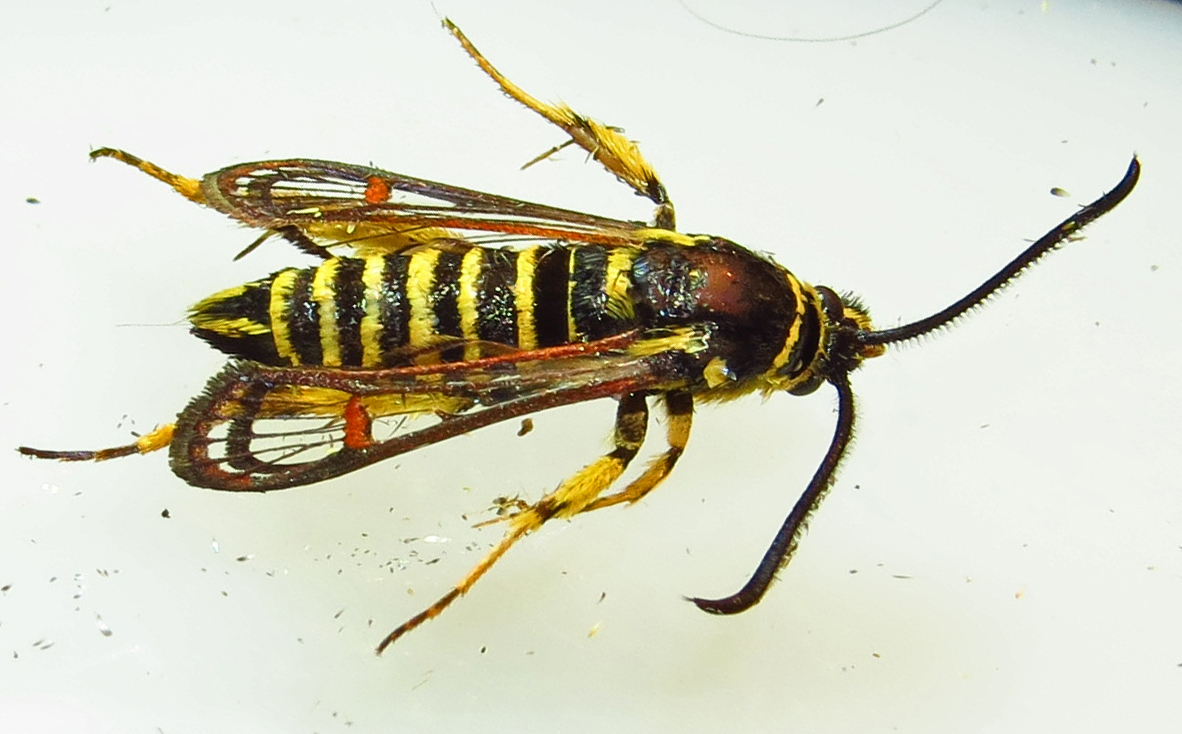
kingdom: Animalia
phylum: Arthropoda
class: Insecta
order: Lepidoptera
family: Sesiidae
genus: Synanthedon
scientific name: Synanthedon rileyana
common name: Riley's clearwing moth
